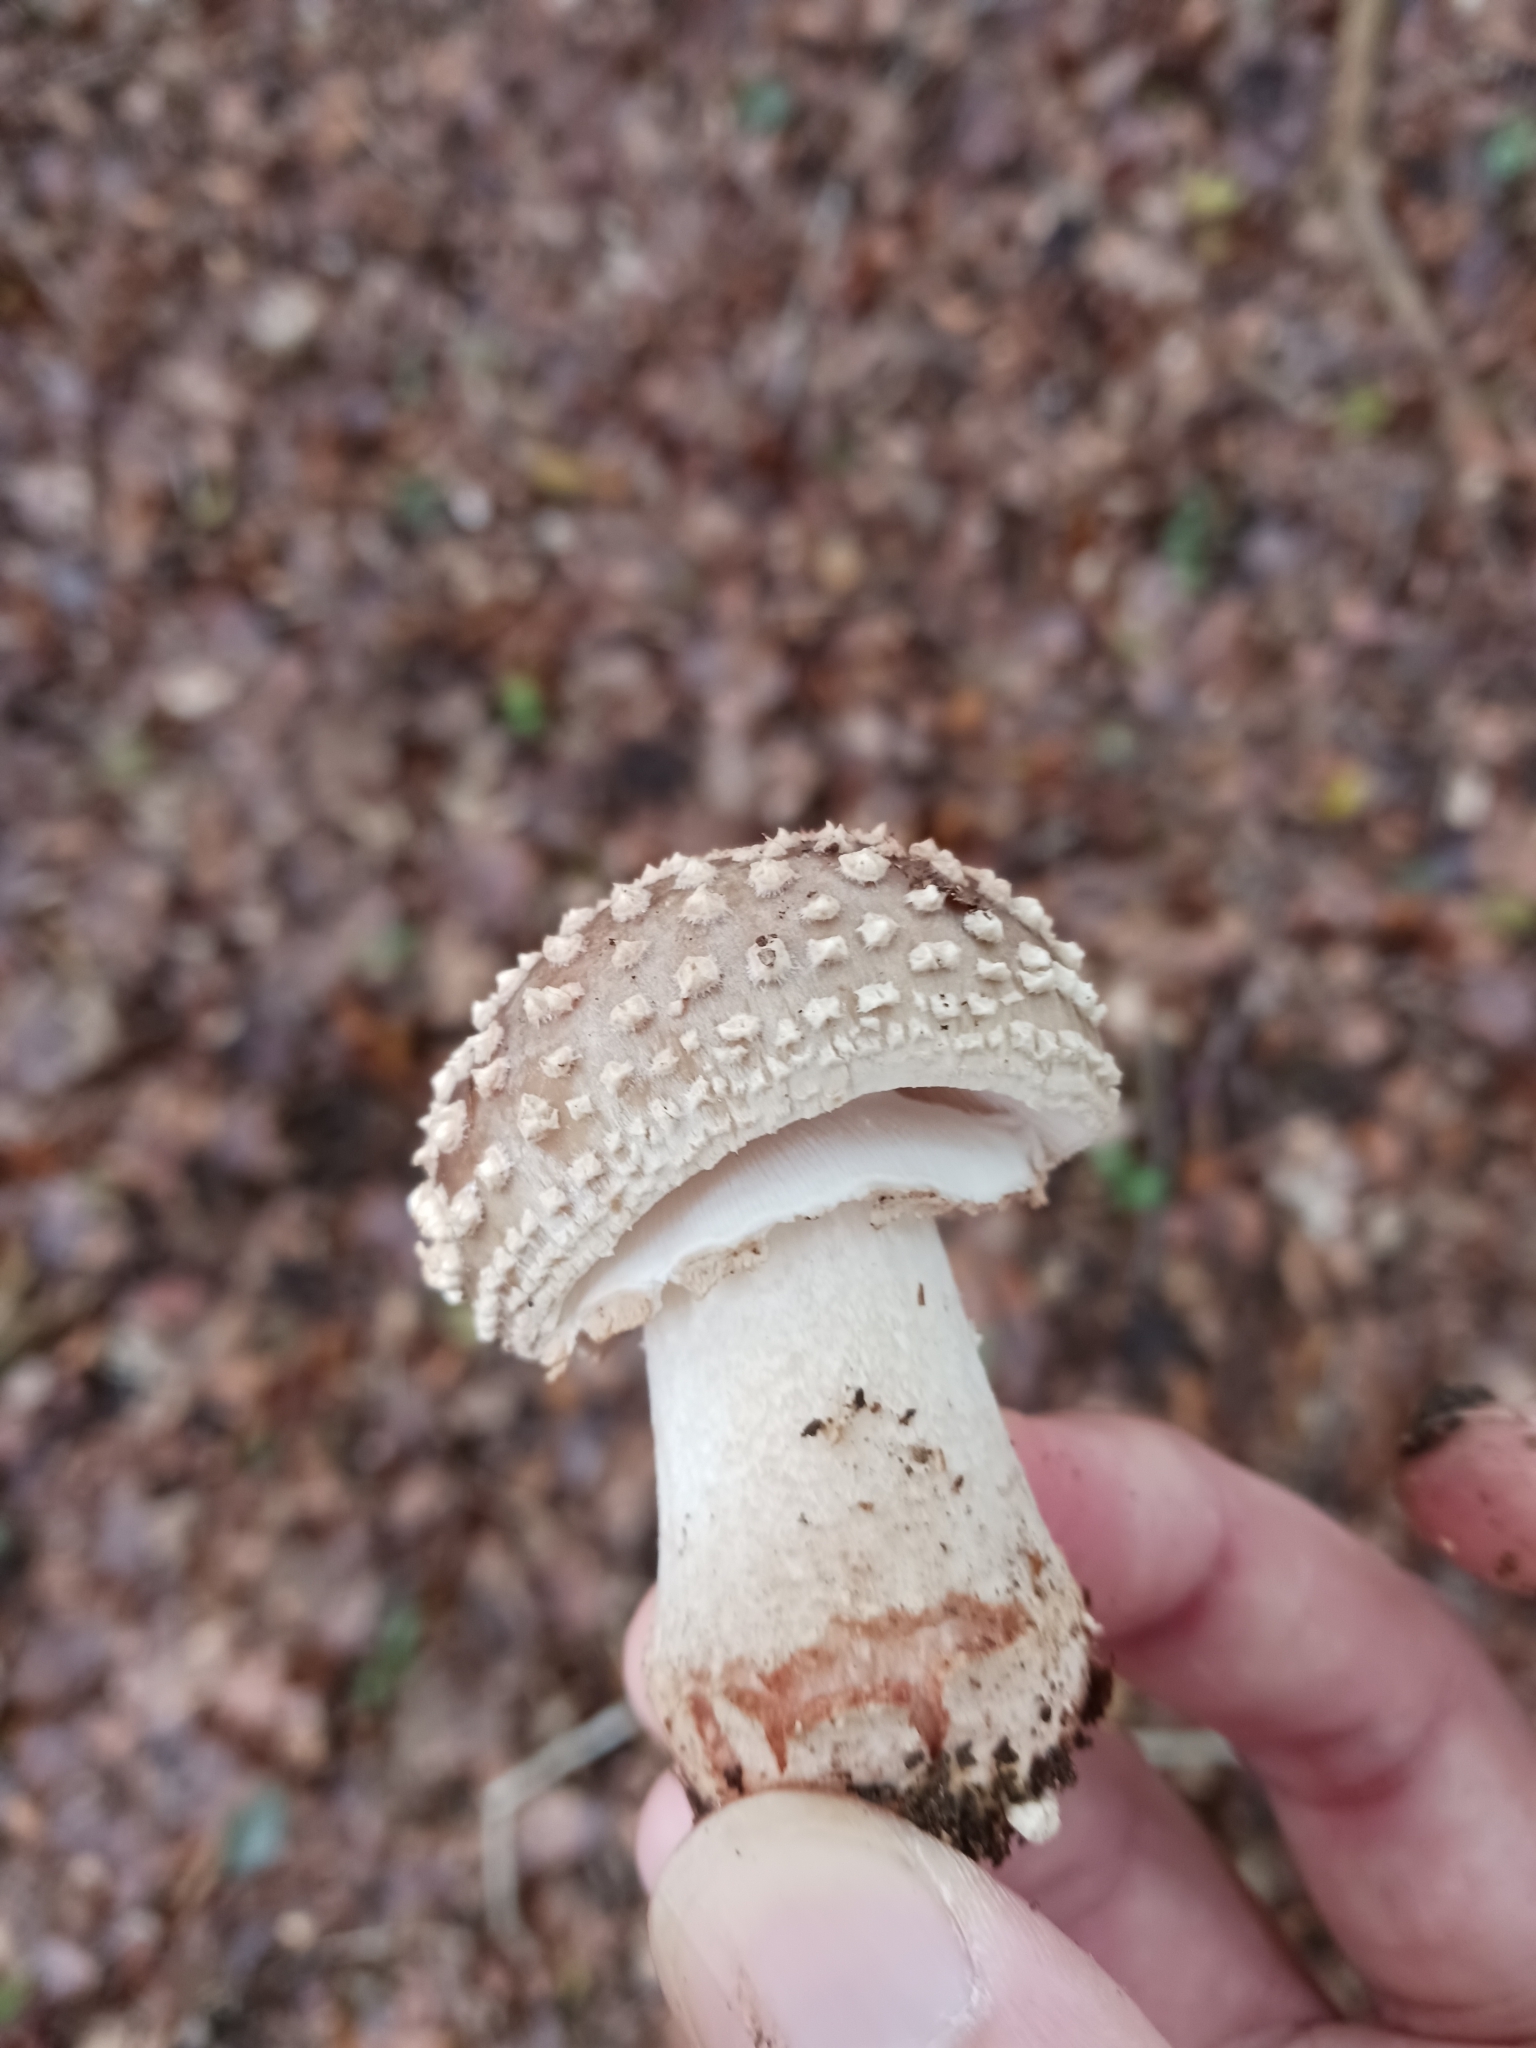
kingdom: Fungi
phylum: Basidiomycota
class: Agaricomycetes
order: Agaricales
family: Amanitaceae
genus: Amanita
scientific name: Amanita rubescens
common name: Blusher
